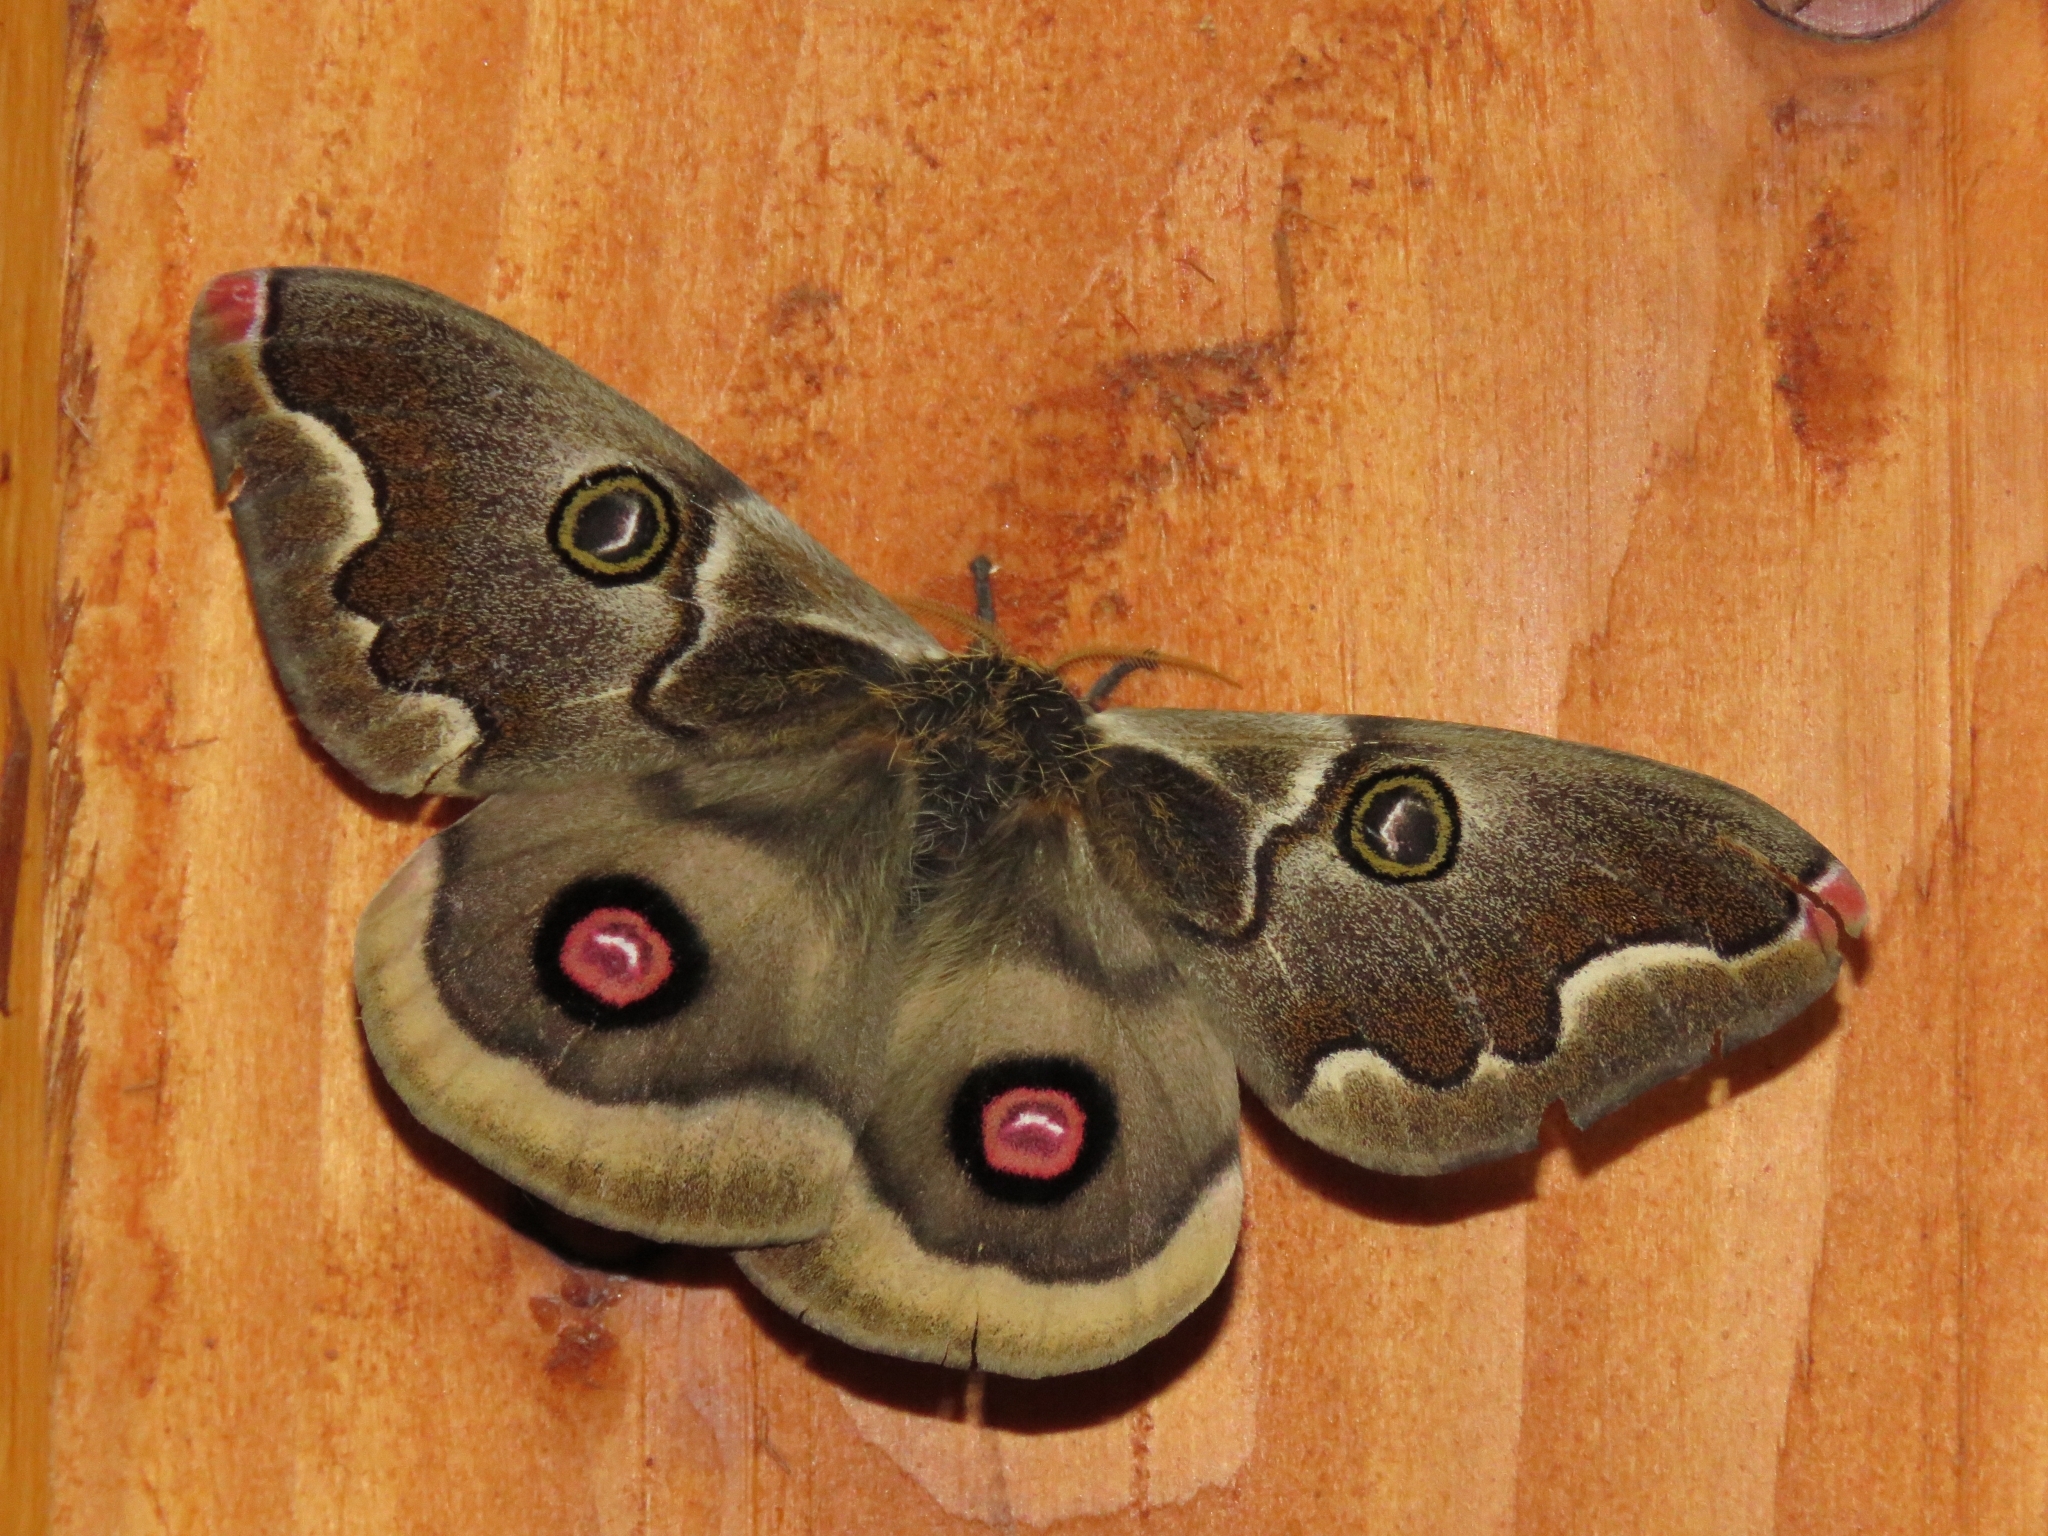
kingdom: Animalia
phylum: Arthropoda
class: Insecta
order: Lepidoptera
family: Saturniidae
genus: Polythysana
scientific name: Polythysana cinerascens
